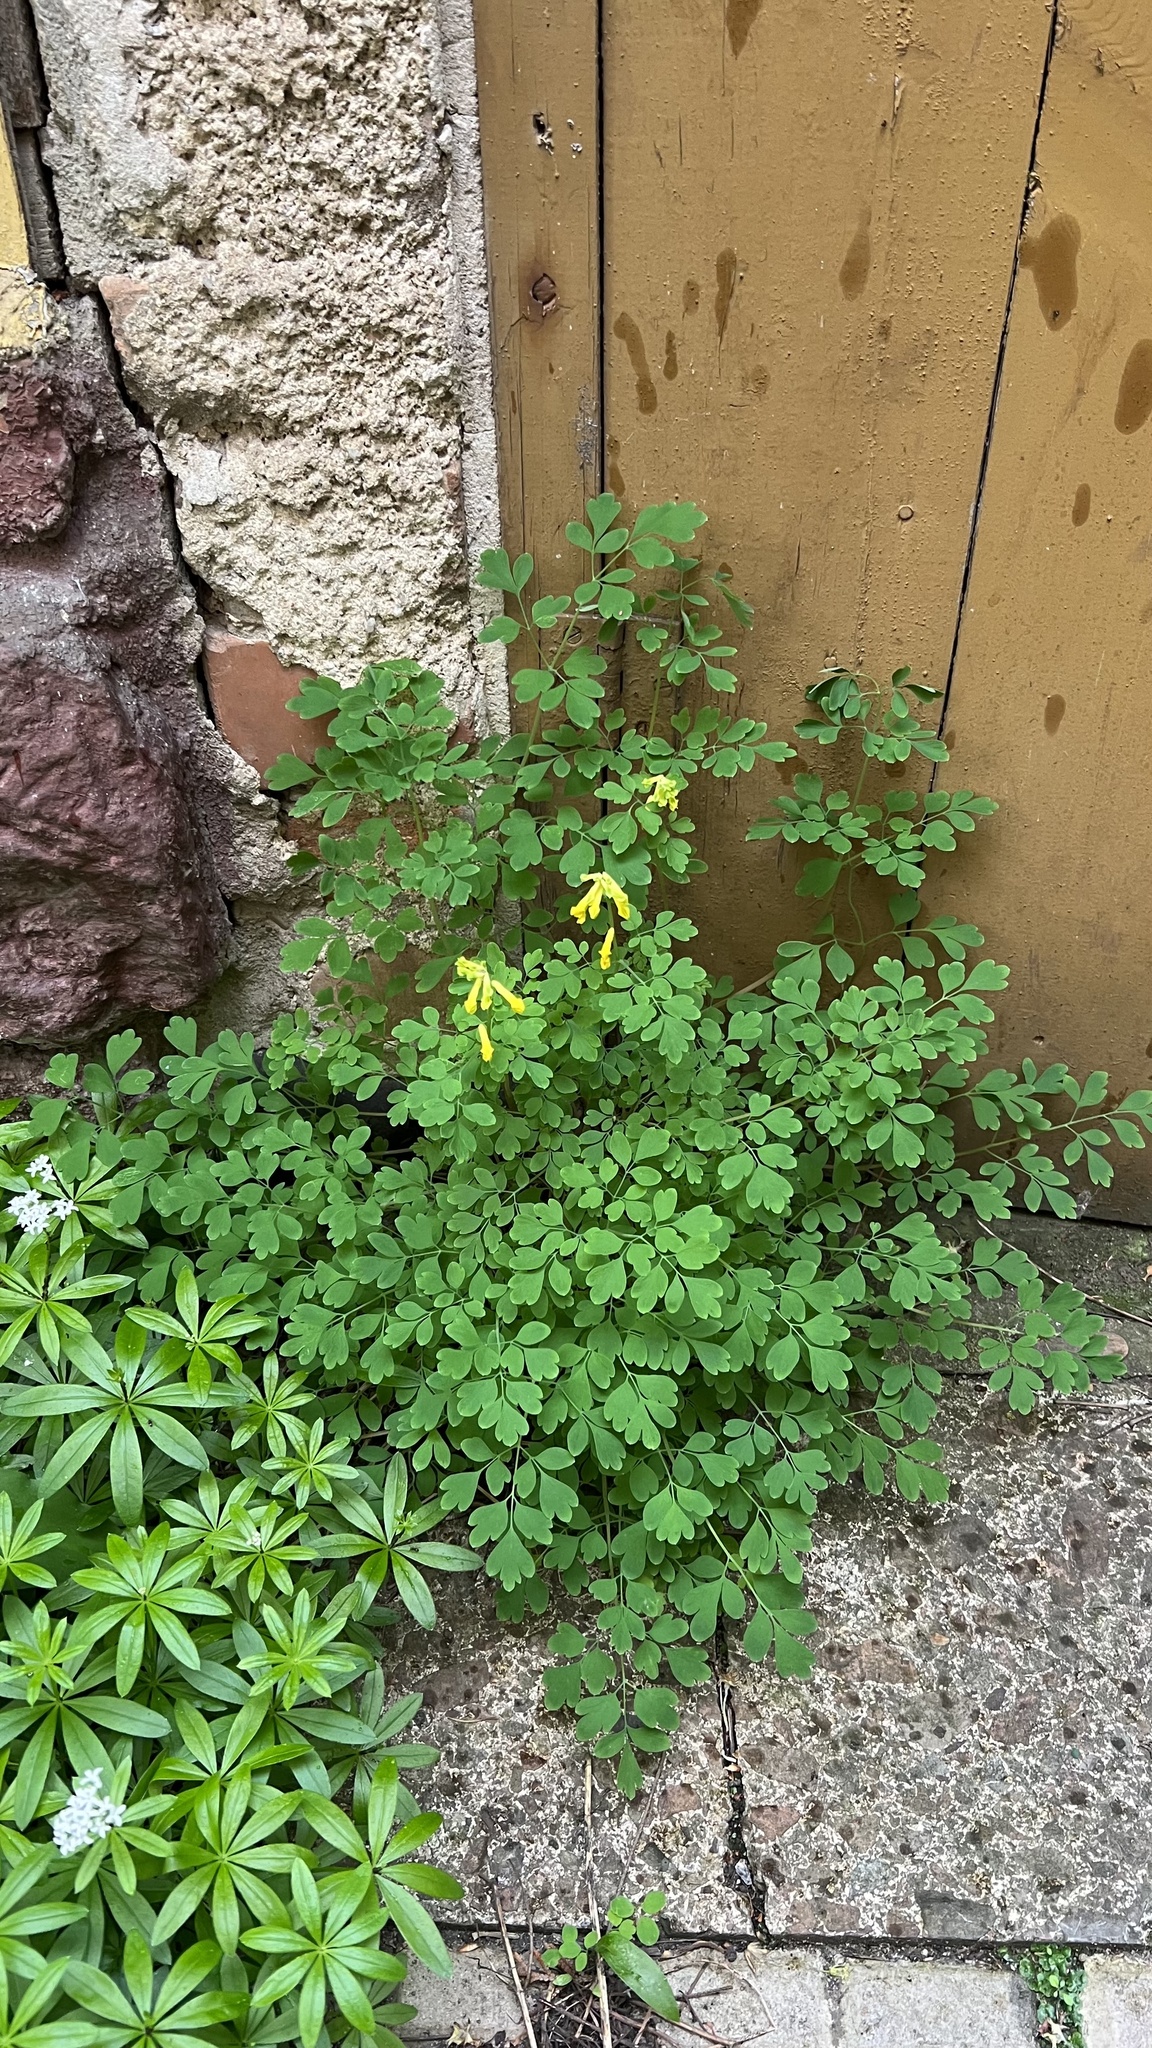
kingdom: Plantae
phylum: Tracheophyta
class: Magnoliopsida
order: Ranunculales
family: Papaveraceae
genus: Pseudofumaria
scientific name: Pseudofumaria lutea
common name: Yellow corydalis
